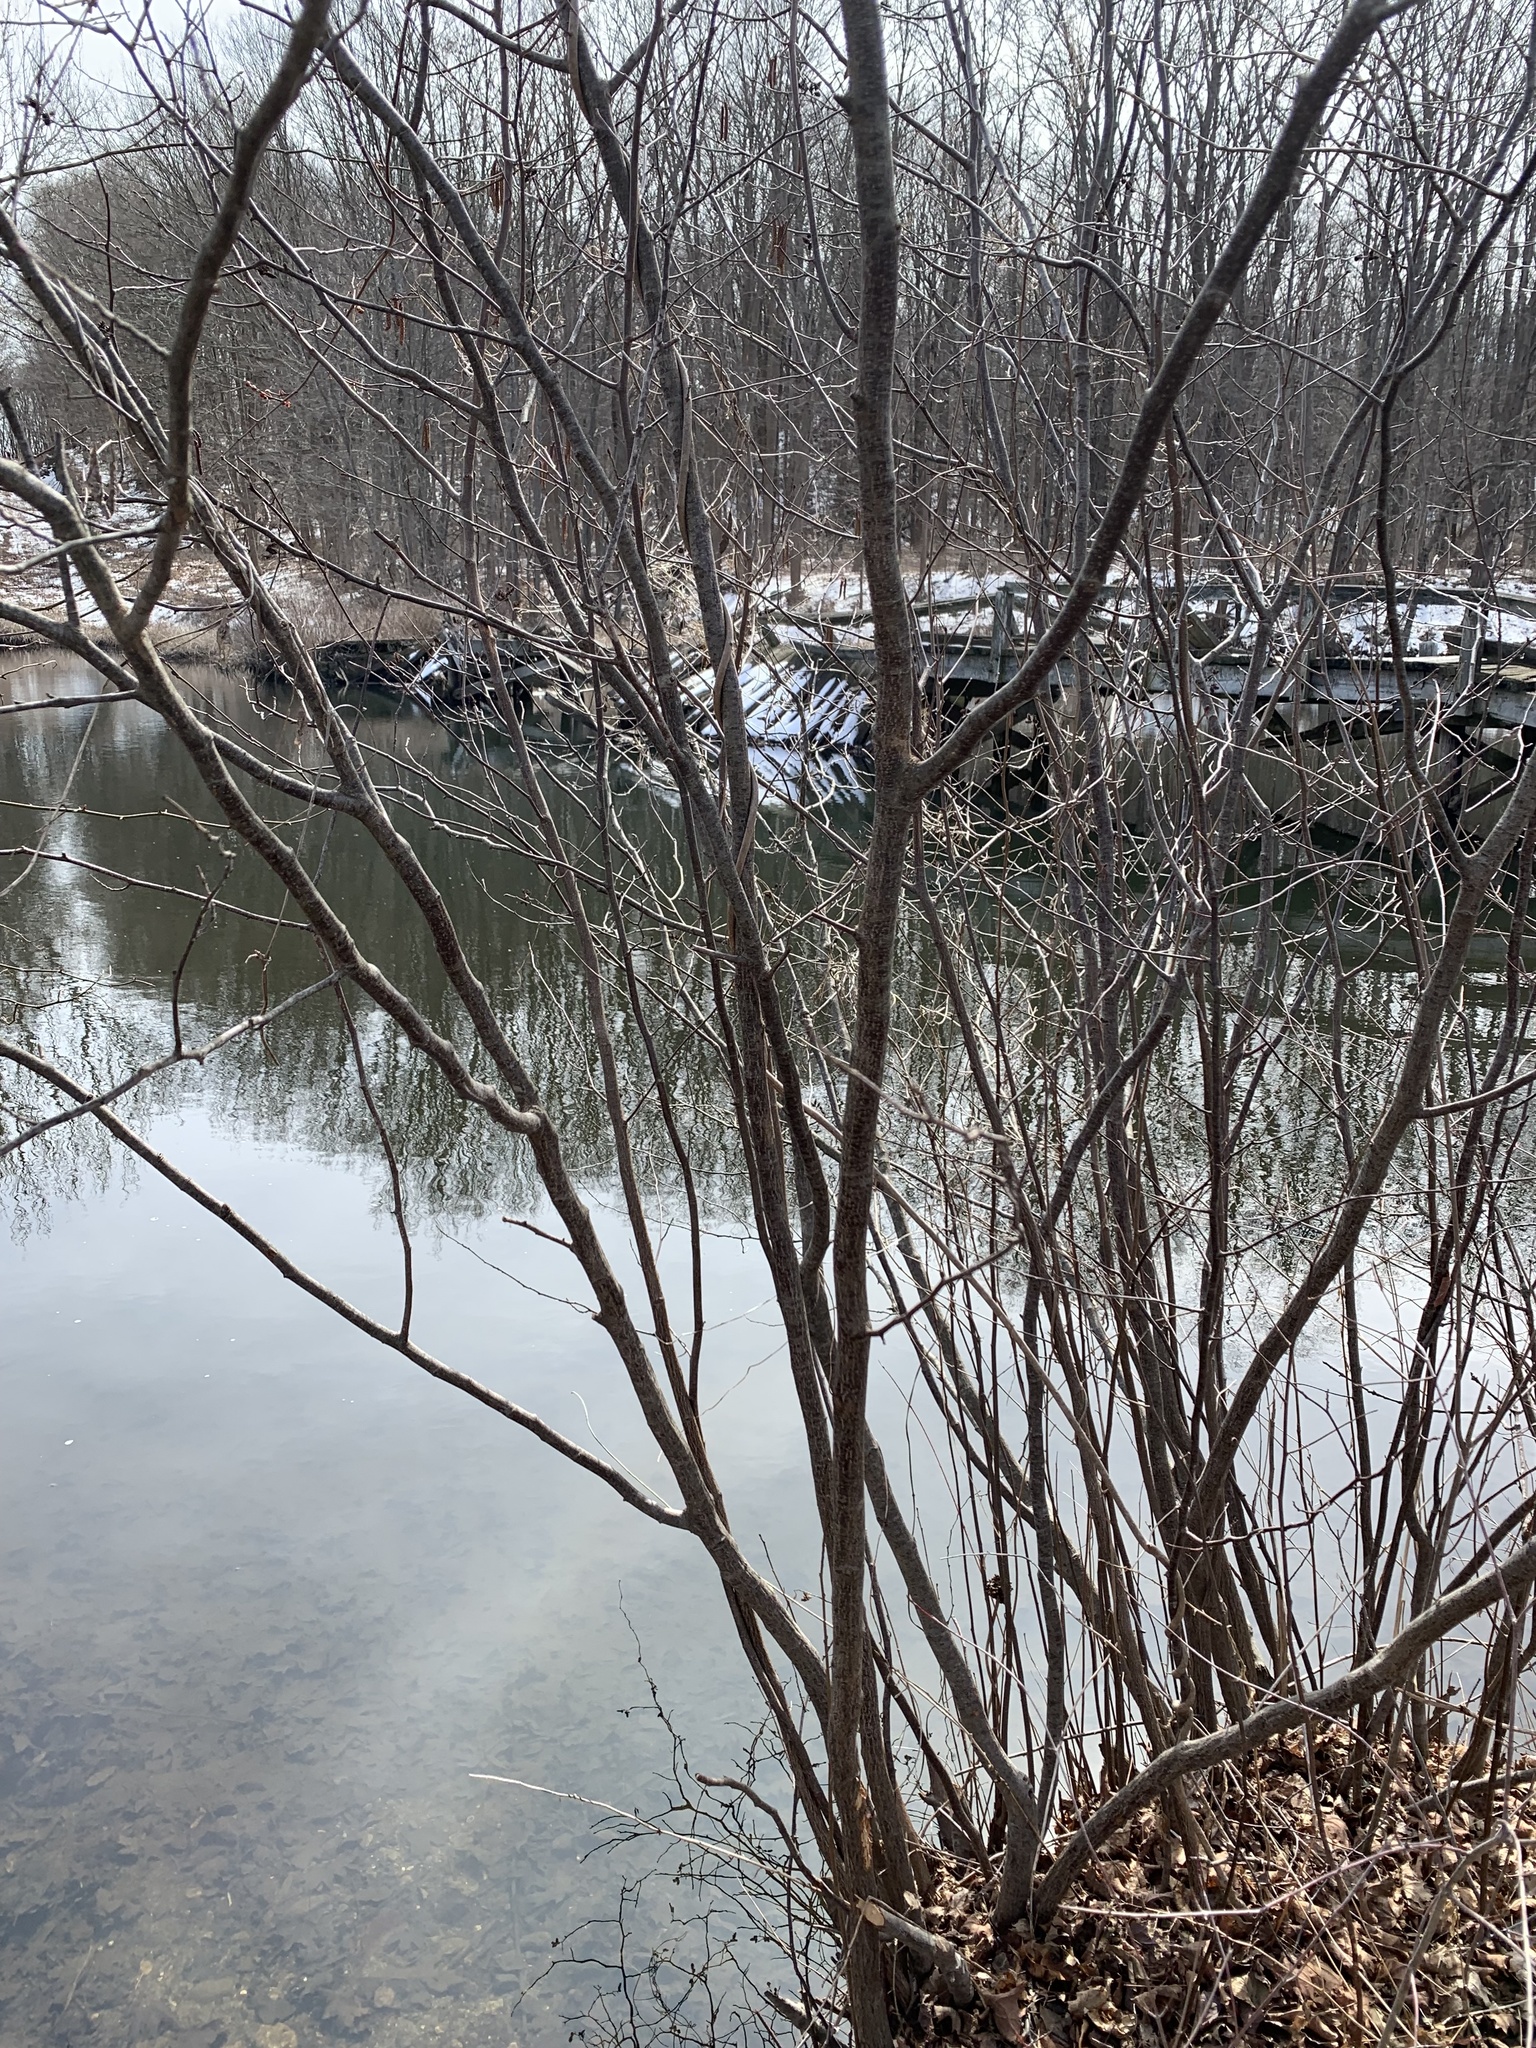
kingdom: Plantae
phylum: Tracheophyta
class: Magnoliopsida
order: Fagales
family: Betulaceae
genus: Alnus
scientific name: Alnus serrulata
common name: Hazel alder
